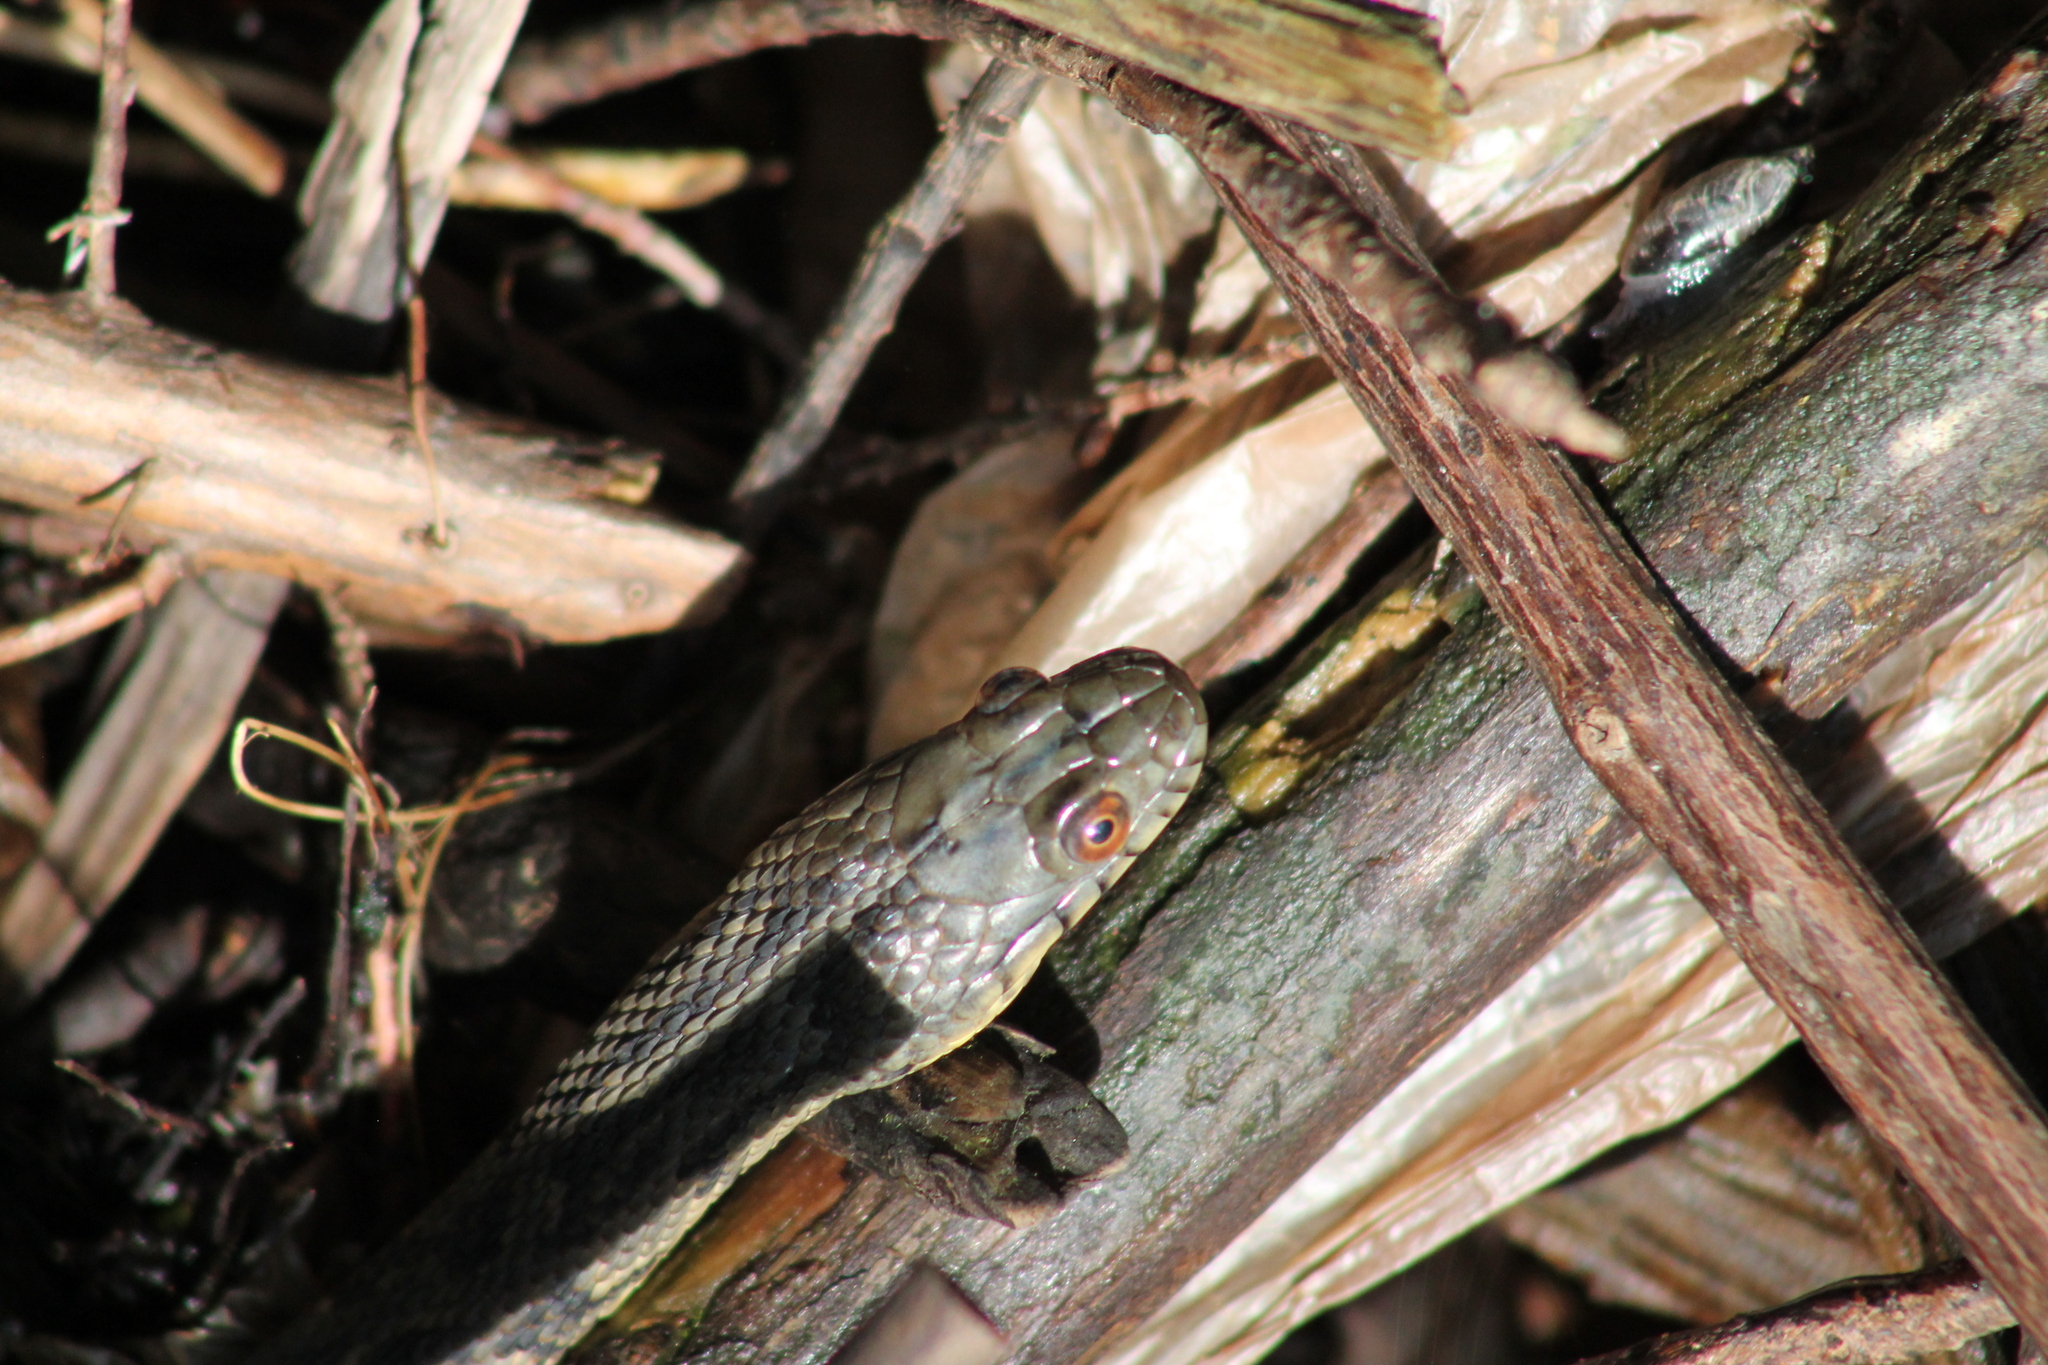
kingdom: Animalia
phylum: Chordata
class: Squamata
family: Colubridae
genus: Nerodia
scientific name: Nerodia rhombifer
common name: Diamondback water snake
